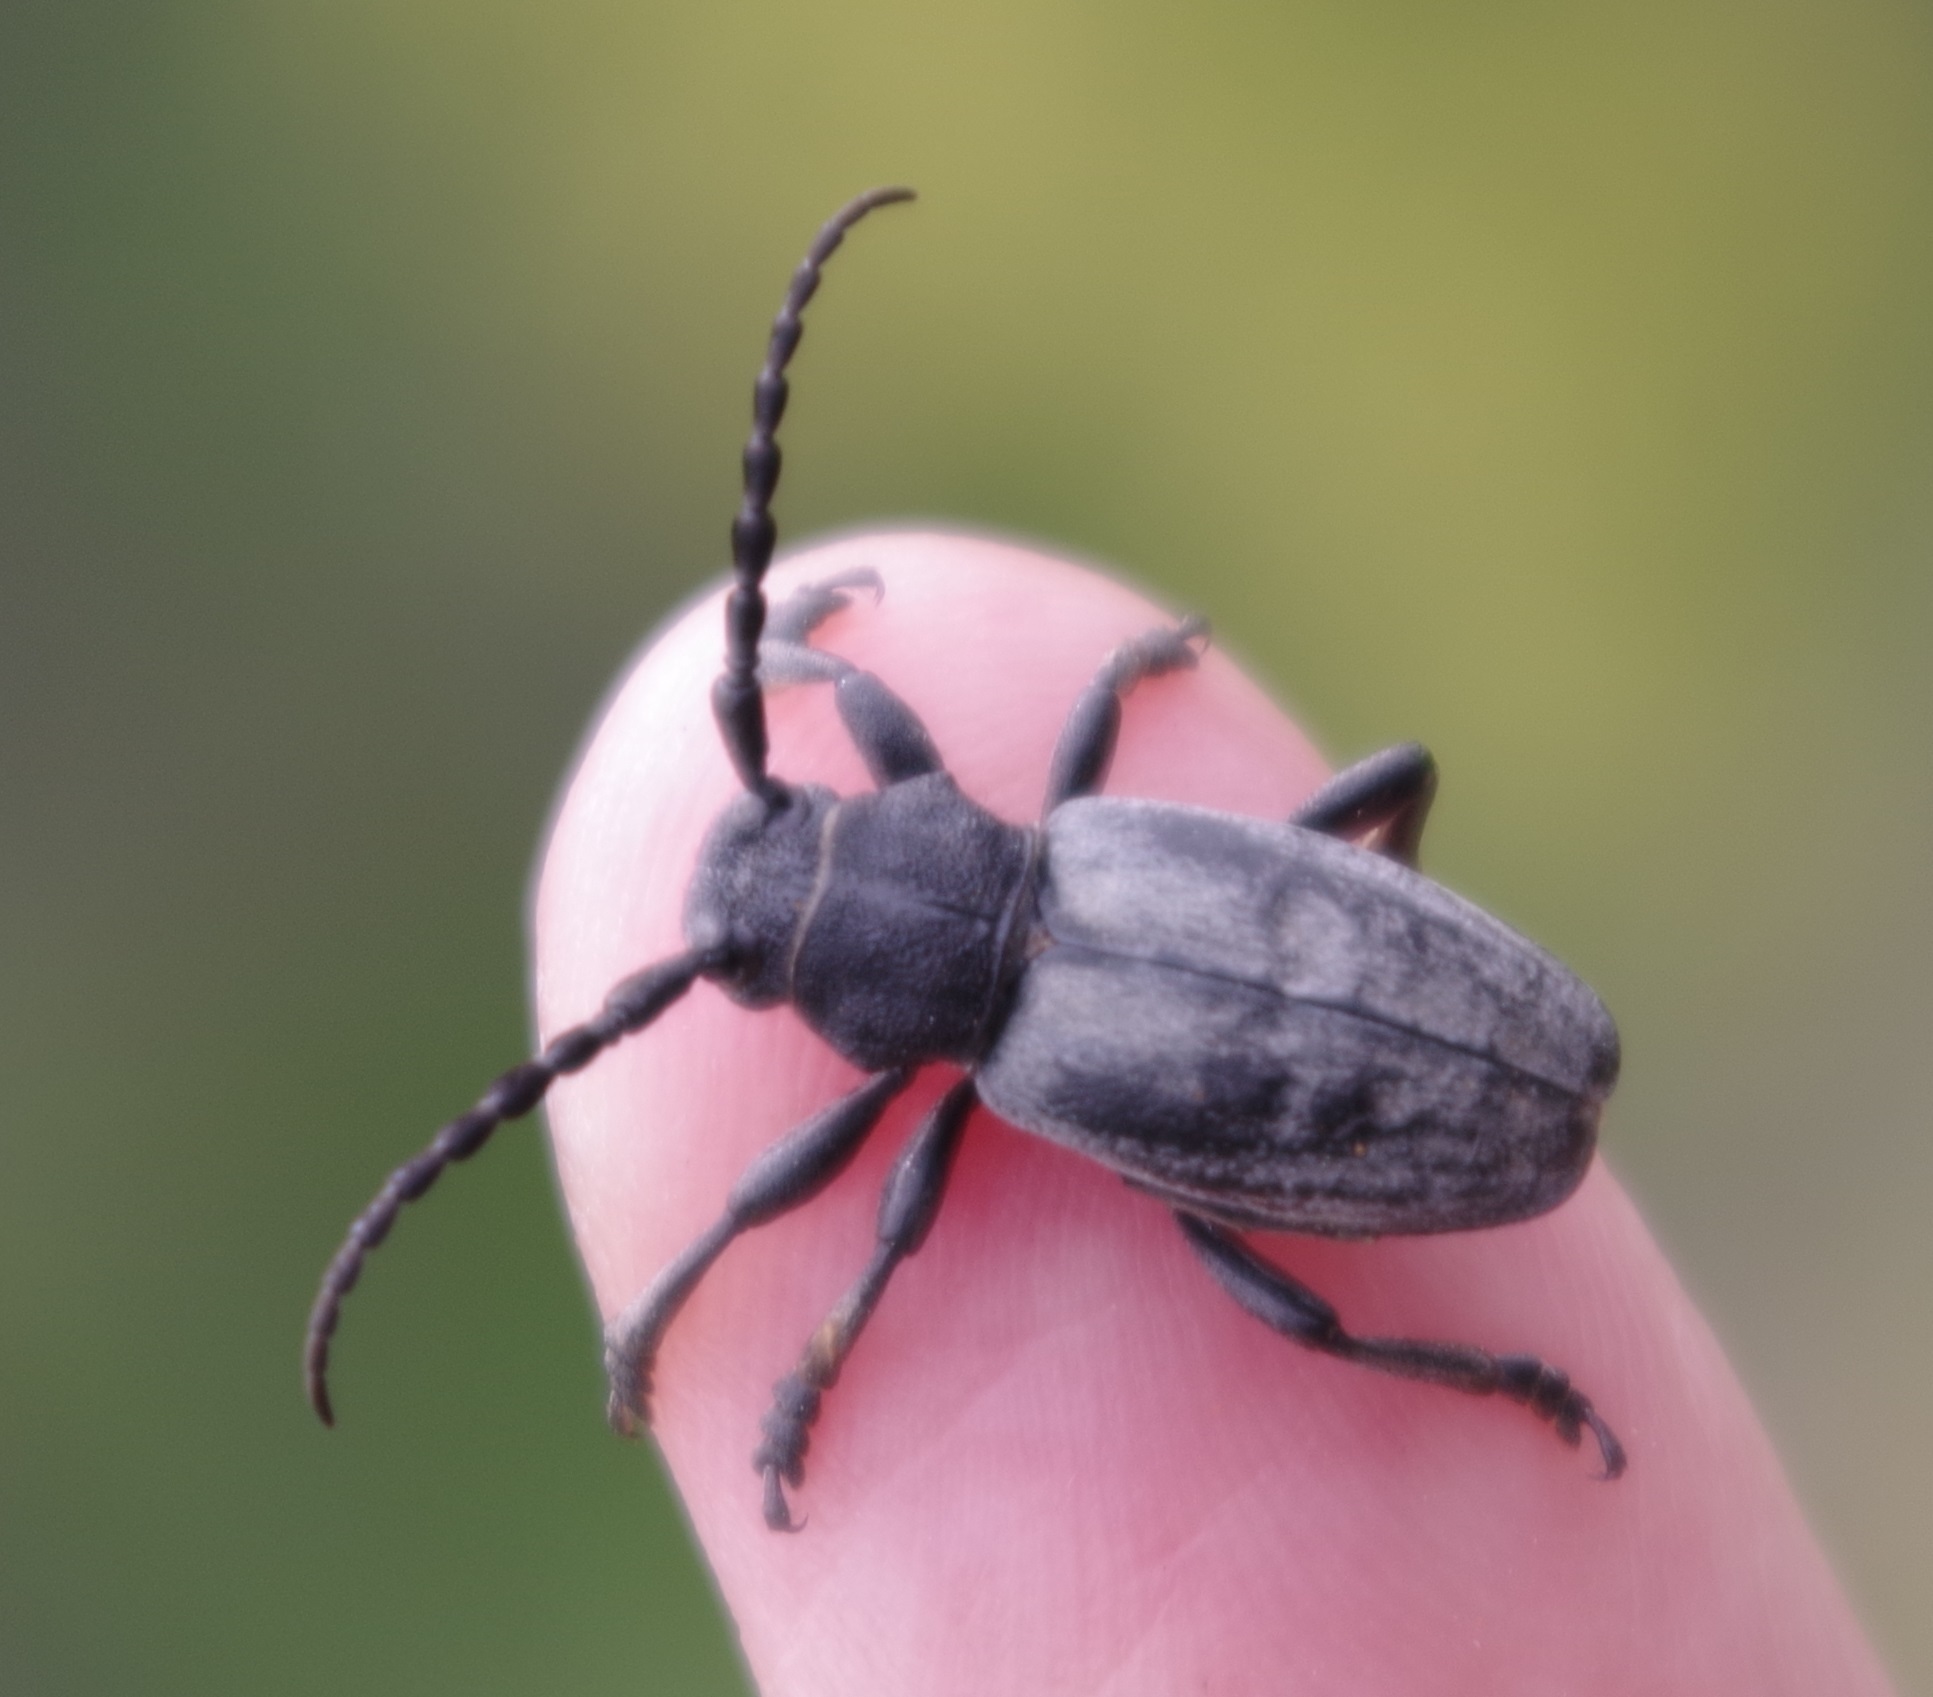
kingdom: Animalia
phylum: Arthropoda
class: Insecta
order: Coleoptera
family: Cerambycidae
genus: Iberodorcadion
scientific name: Iberodorcadion fuliginator
